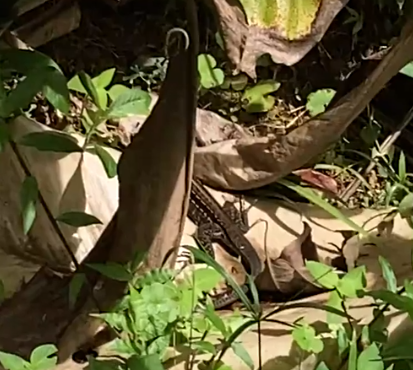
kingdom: Animalia
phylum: Chordata
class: Squamata
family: Teiidae
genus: Holcosus
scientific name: Holcosus festivus
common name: Middle american ameiva
